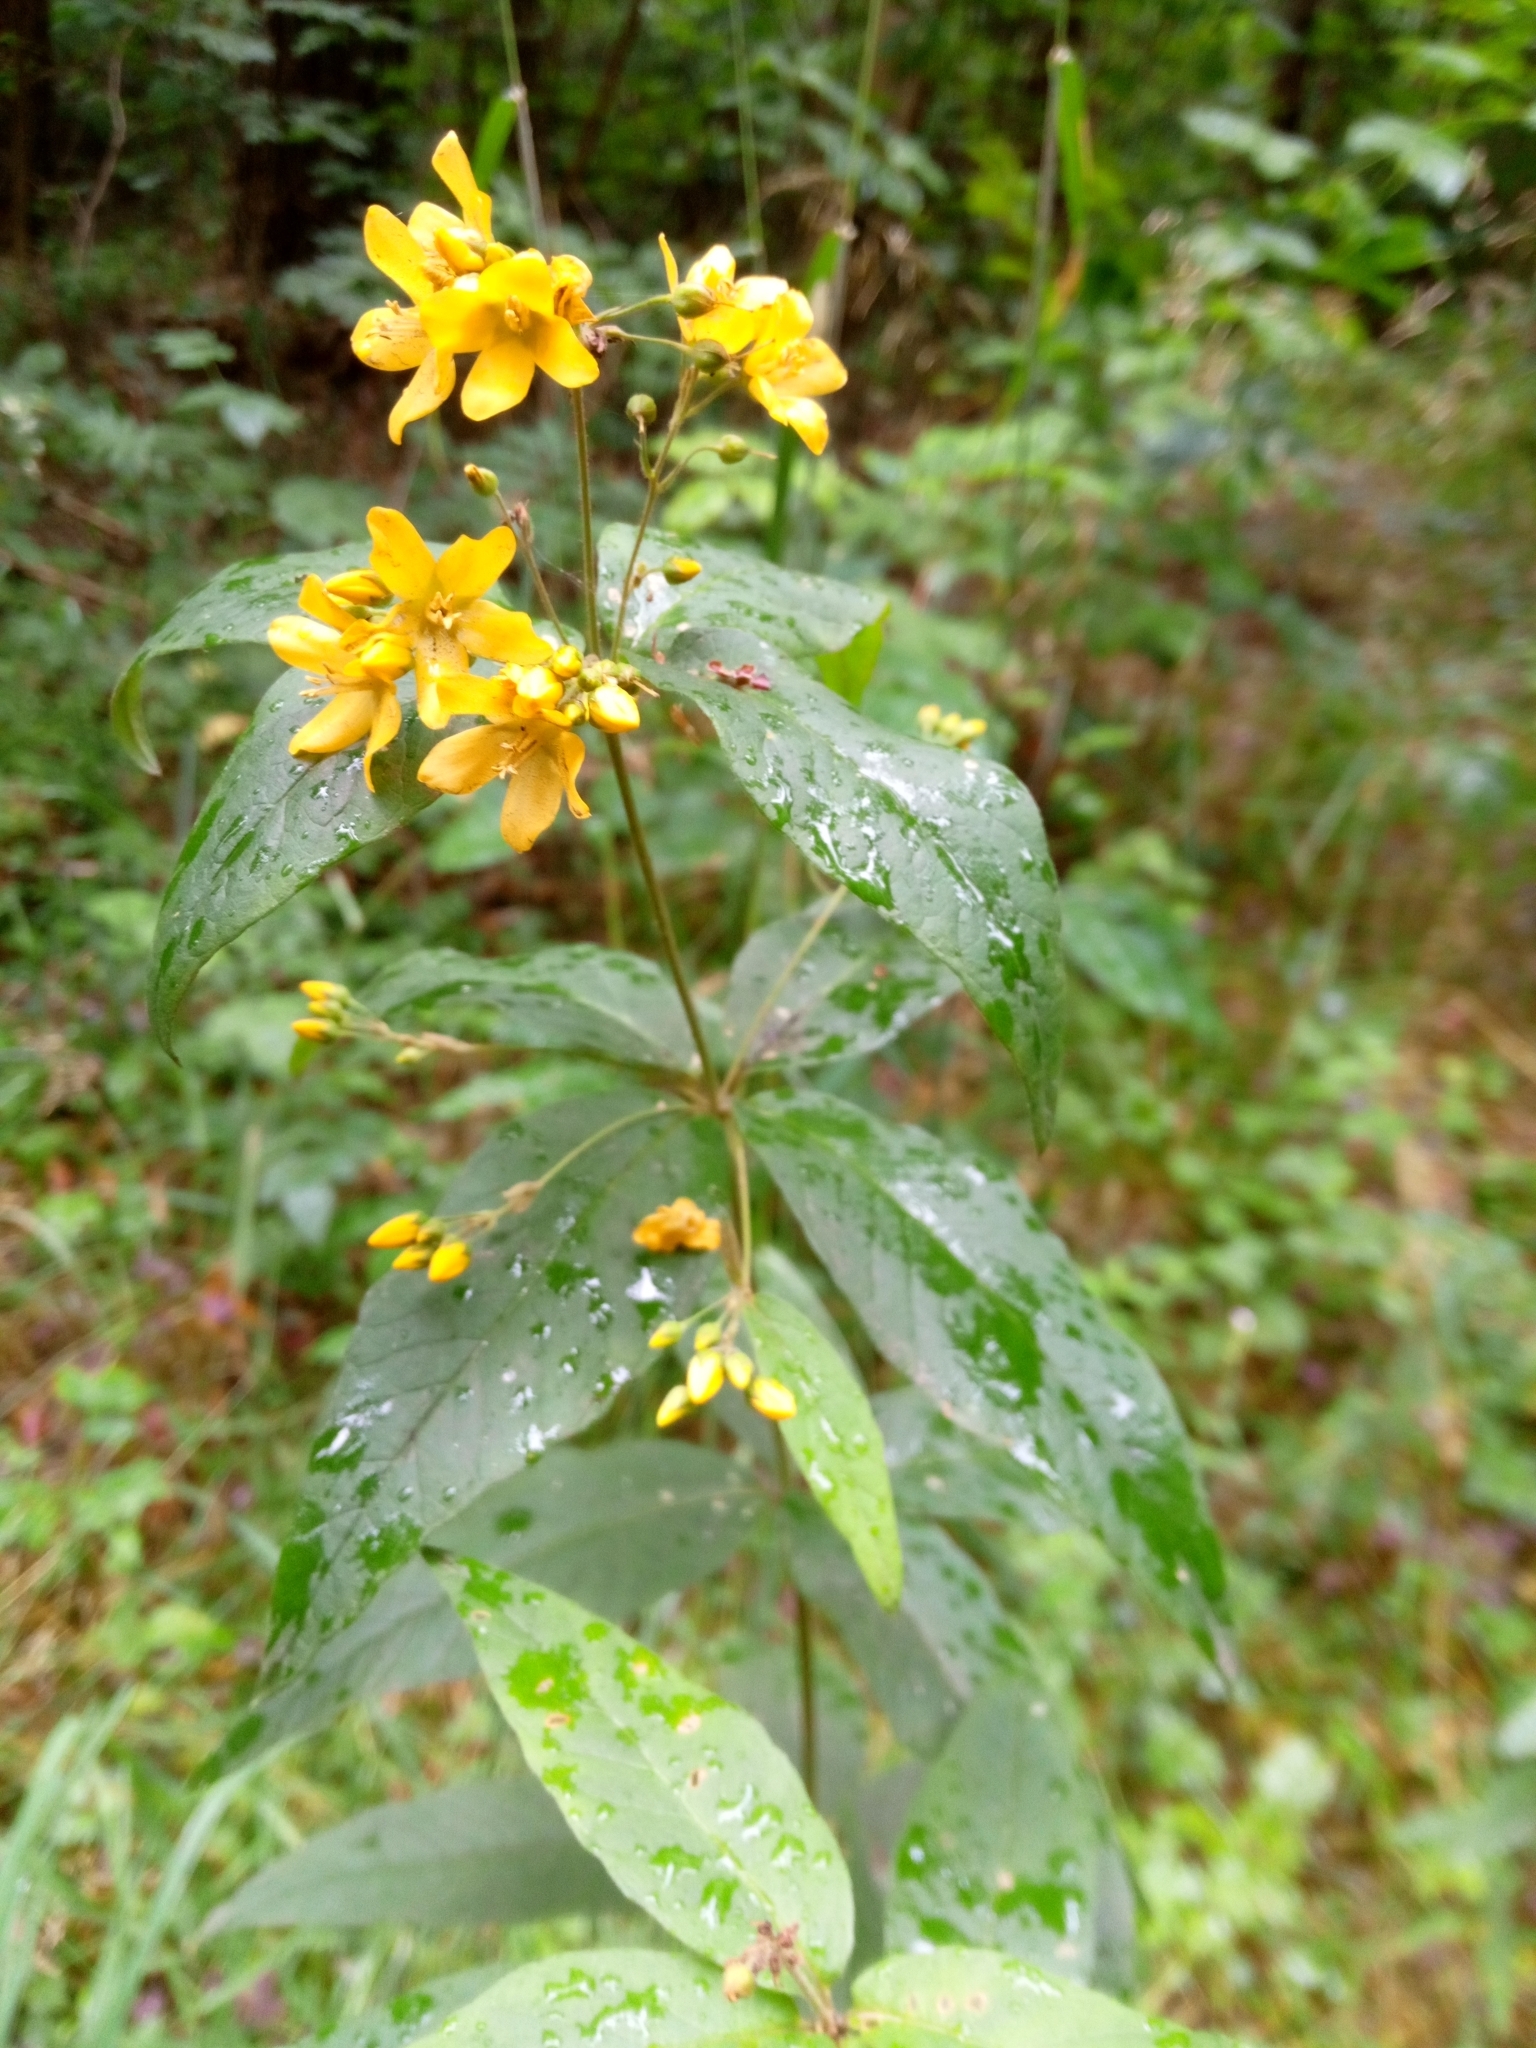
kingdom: Plantae
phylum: Tracheophyta
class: Magnoliopsida
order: Ericales
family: Primulaceae
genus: Lysimachia
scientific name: Lysimachia vulgaris
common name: Yellow loosestrife
